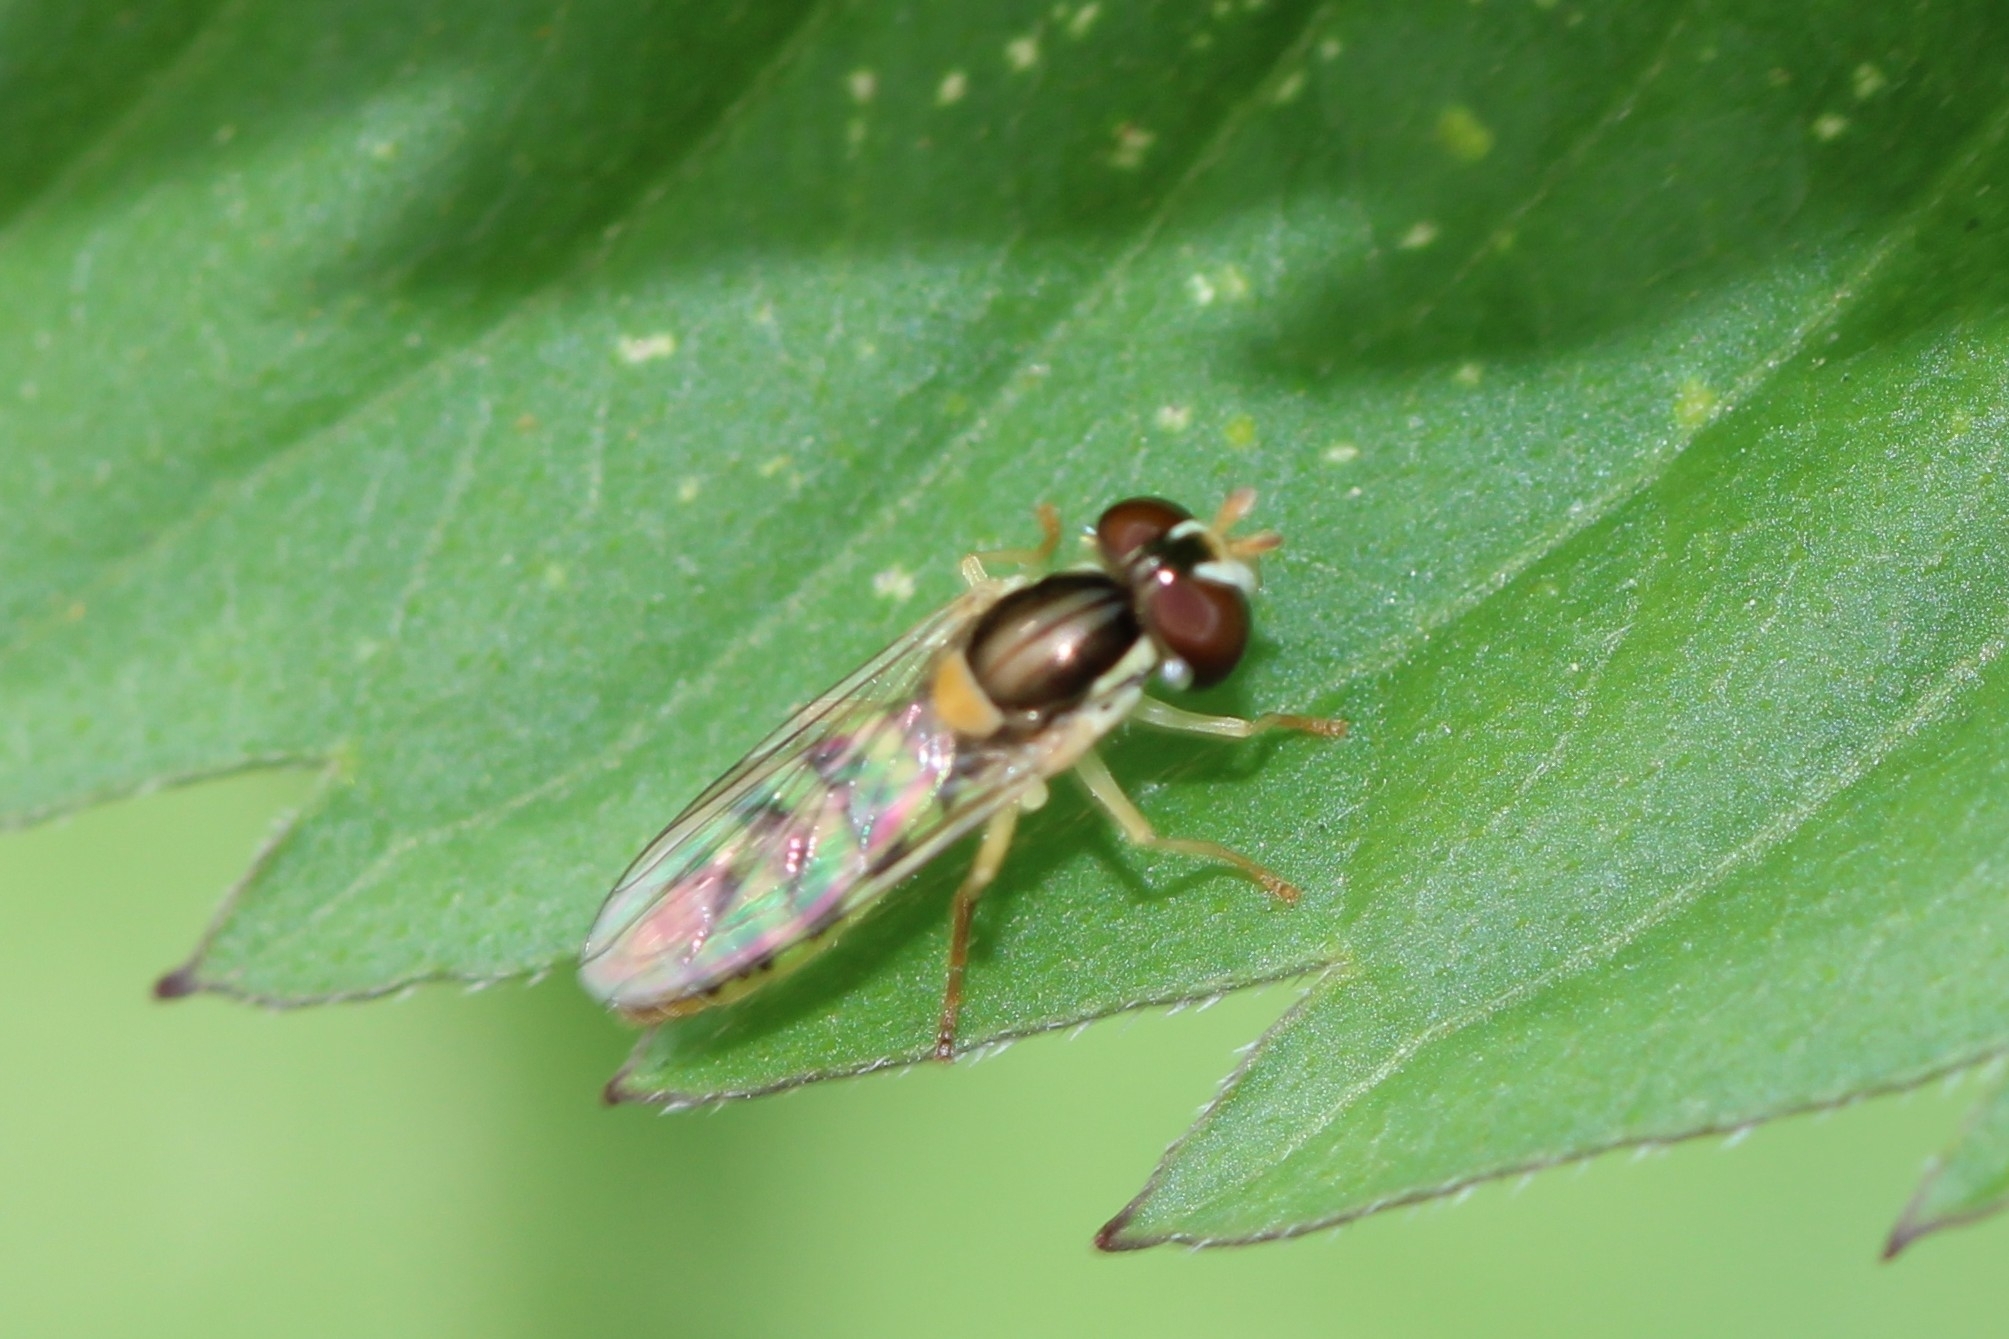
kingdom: Animalia
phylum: Arthropoda
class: Insecta
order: Diptera
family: Syrphidae
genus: Sphaerophoria
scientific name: Sphaerophoria contigua
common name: Tufted globetail
